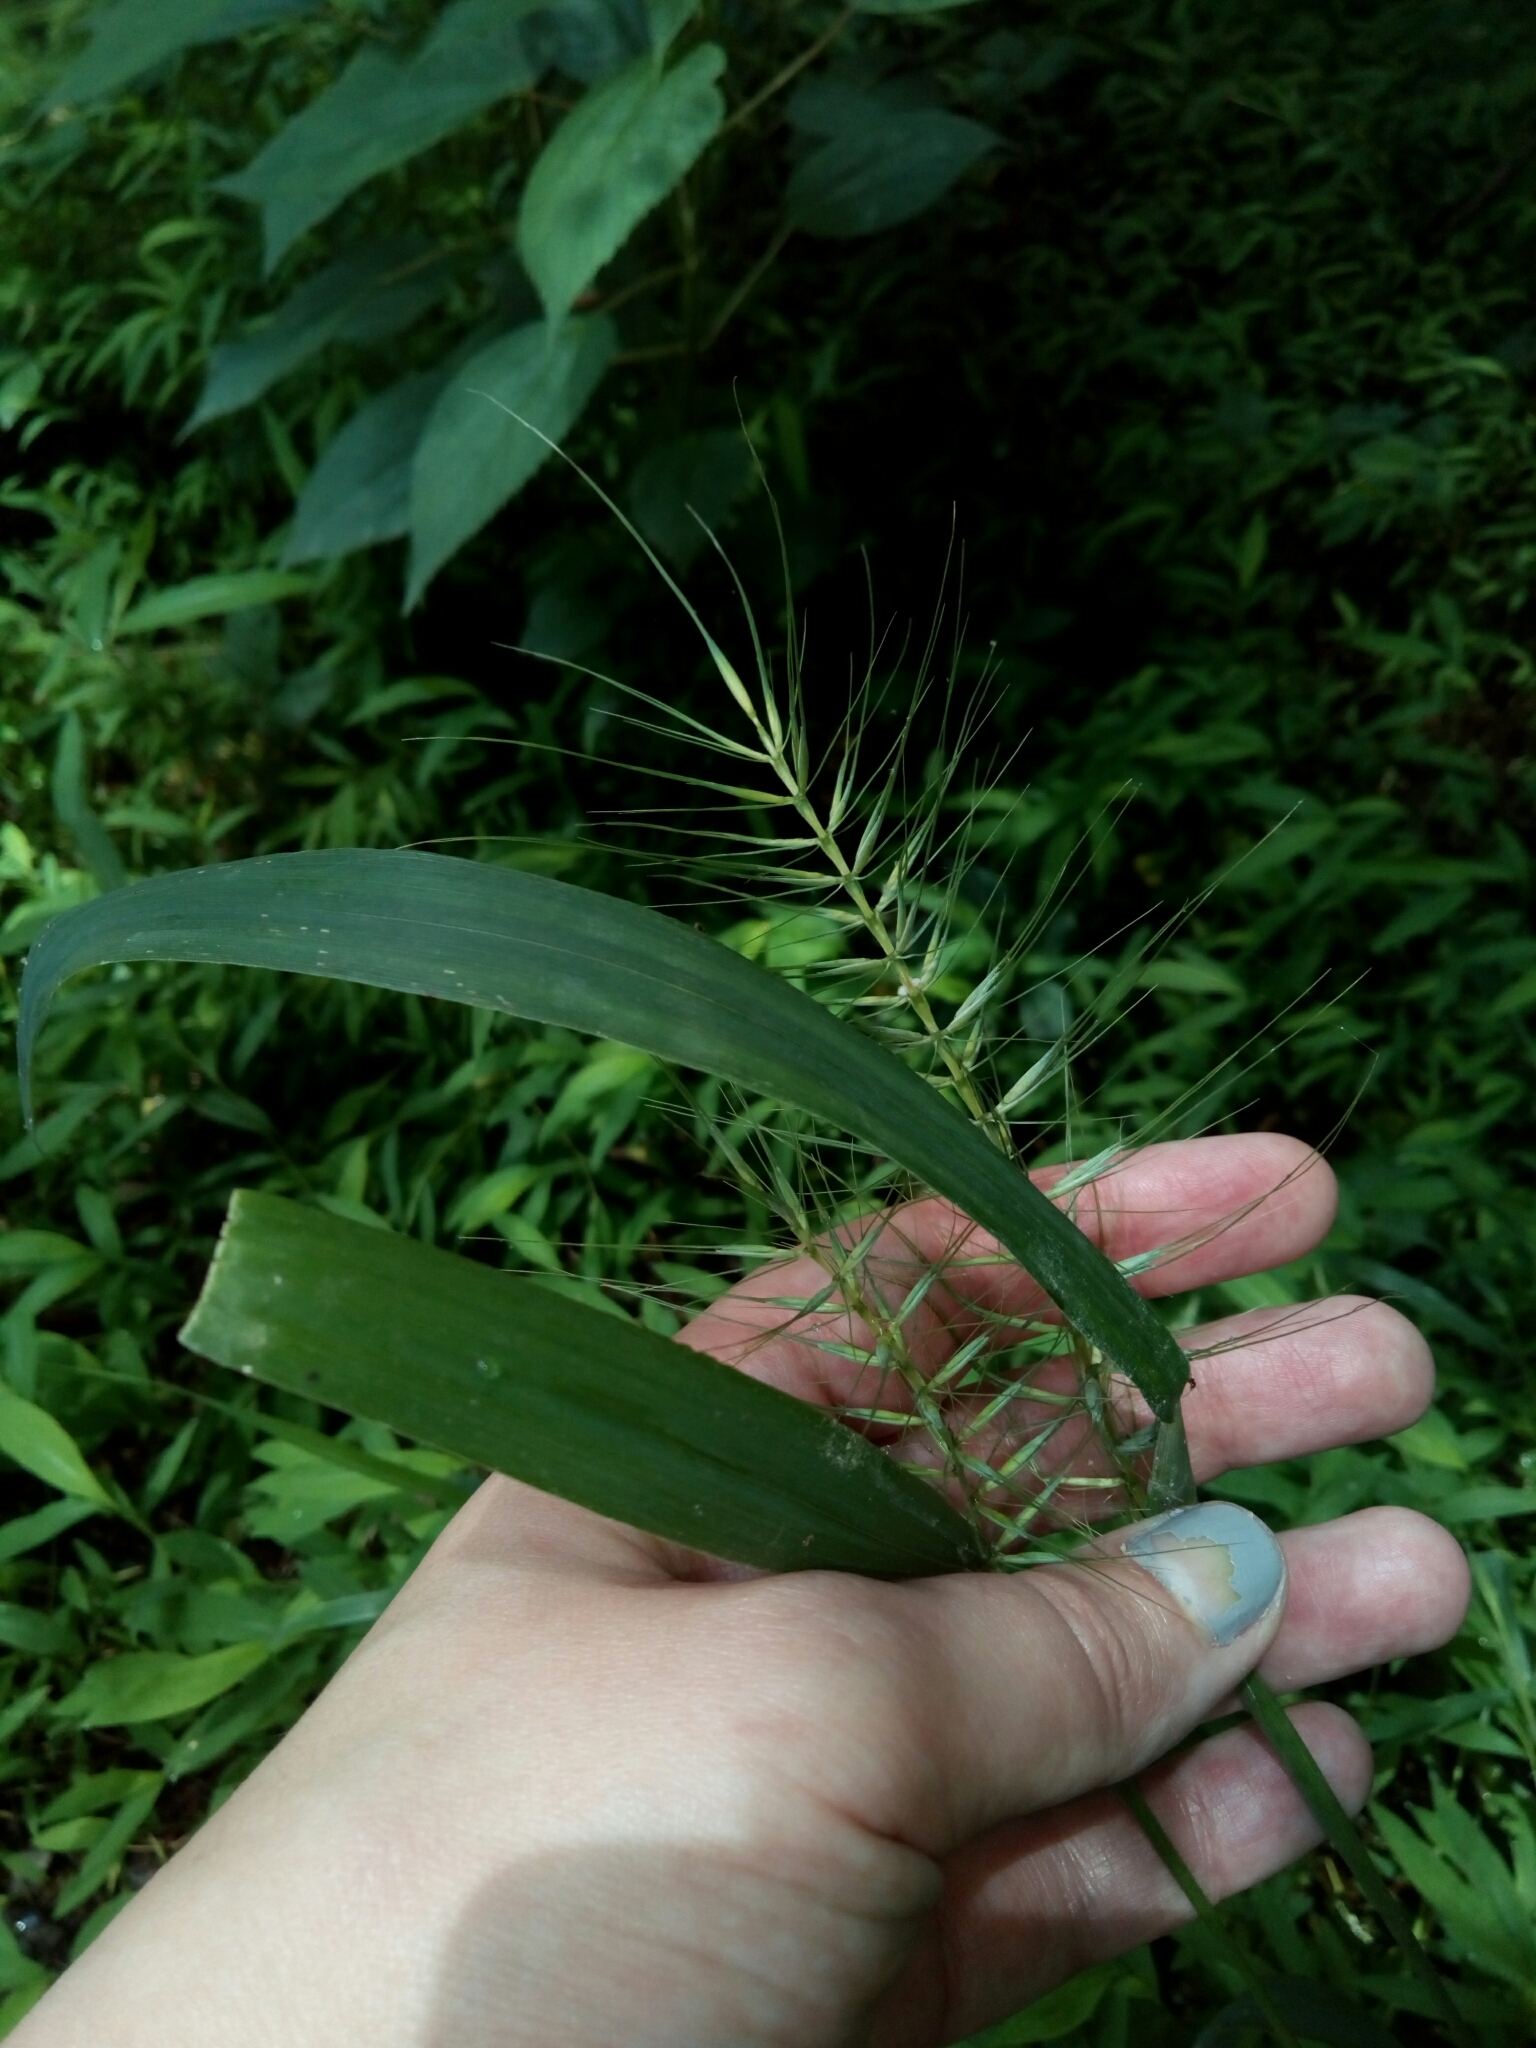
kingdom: Plantae
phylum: Tracheophyta
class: Liliopsida
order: Poales
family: Poaceae
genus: Elymus
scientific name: Elymus hystrix
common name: Bottlebrush grass
